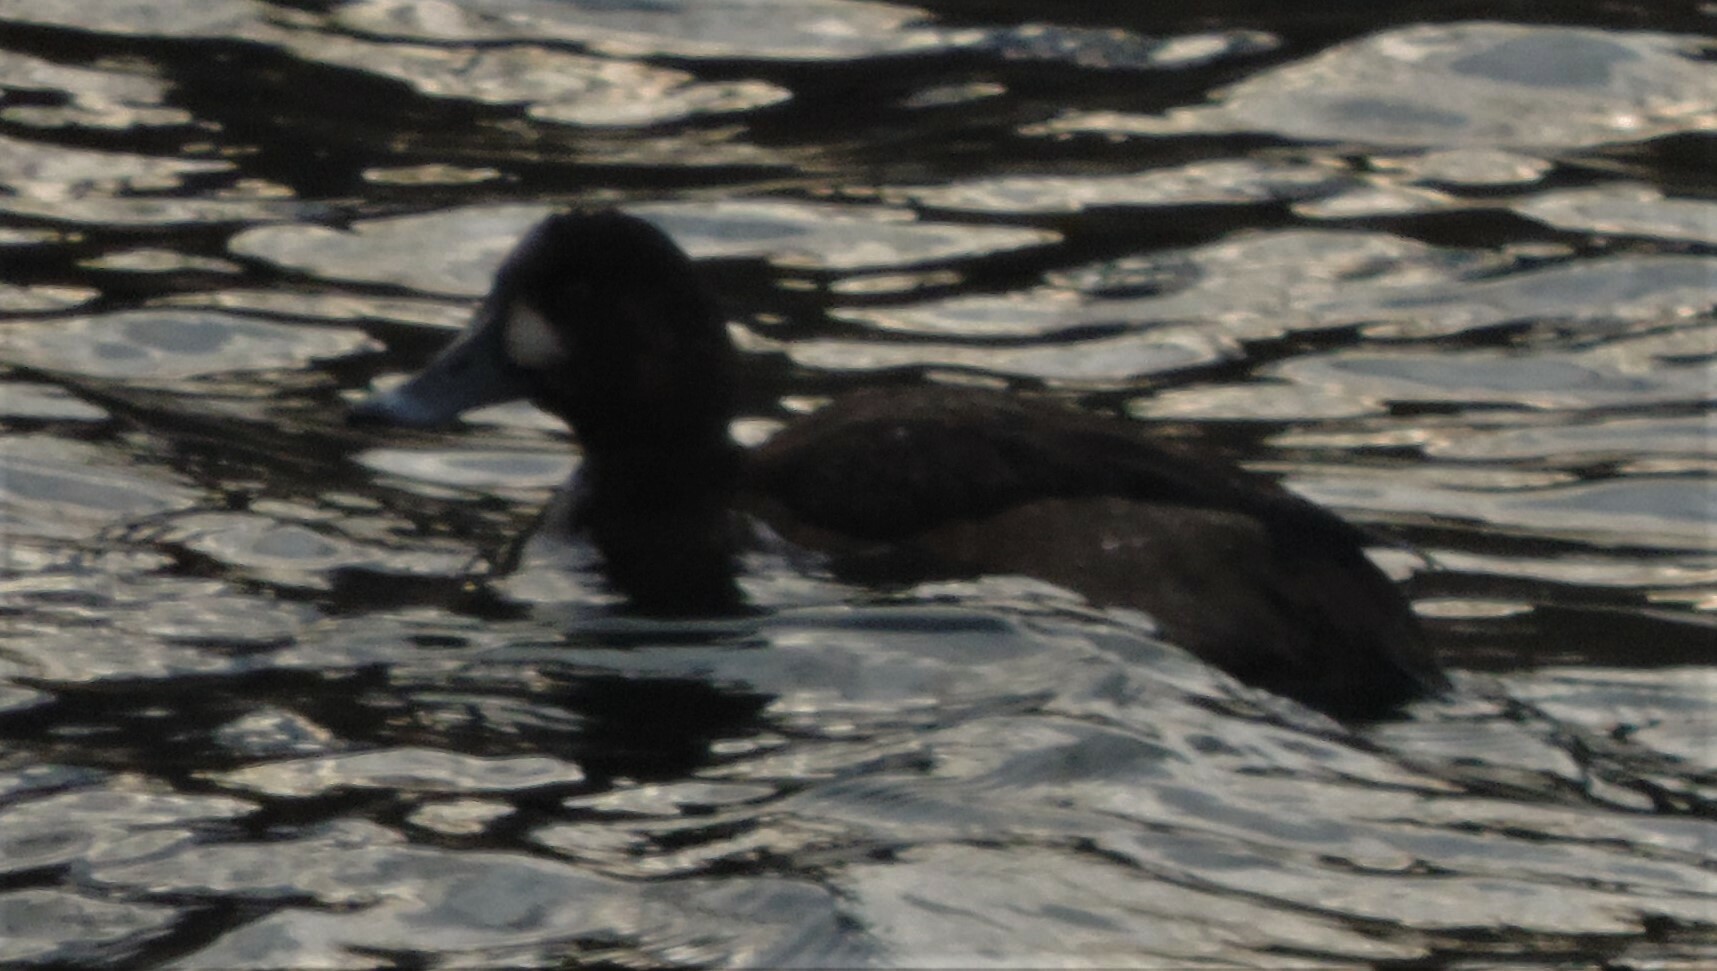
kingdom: Animalia
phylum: Chordata
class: Aves
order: Anseriformes
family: Anatidae
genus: Aythya
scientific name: Aythya marila
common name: Greater scaup
